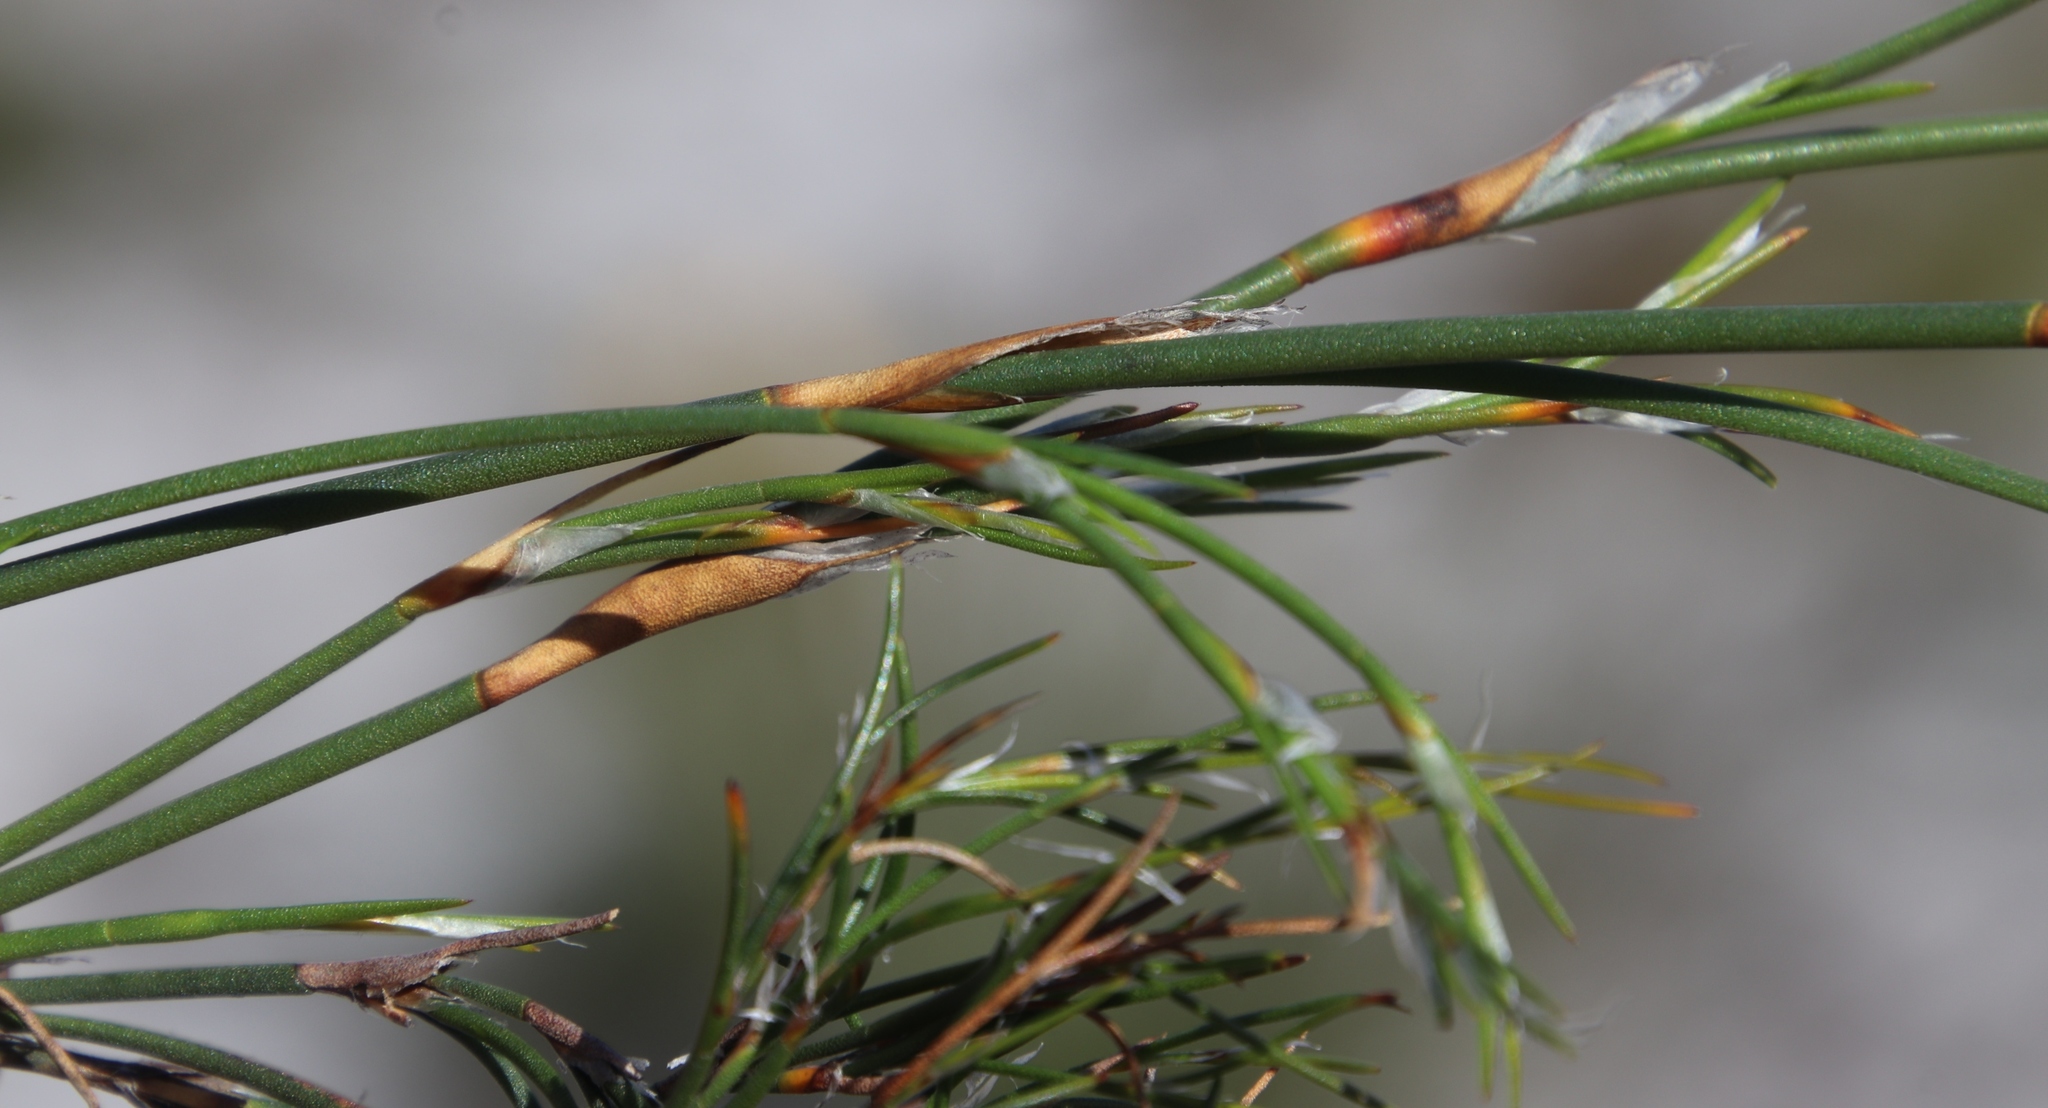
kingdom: Plantae
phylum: Tracheophyta
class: Liliopsida
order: Poales
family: Restionaceae
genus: Restio
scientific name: Restio capensis
